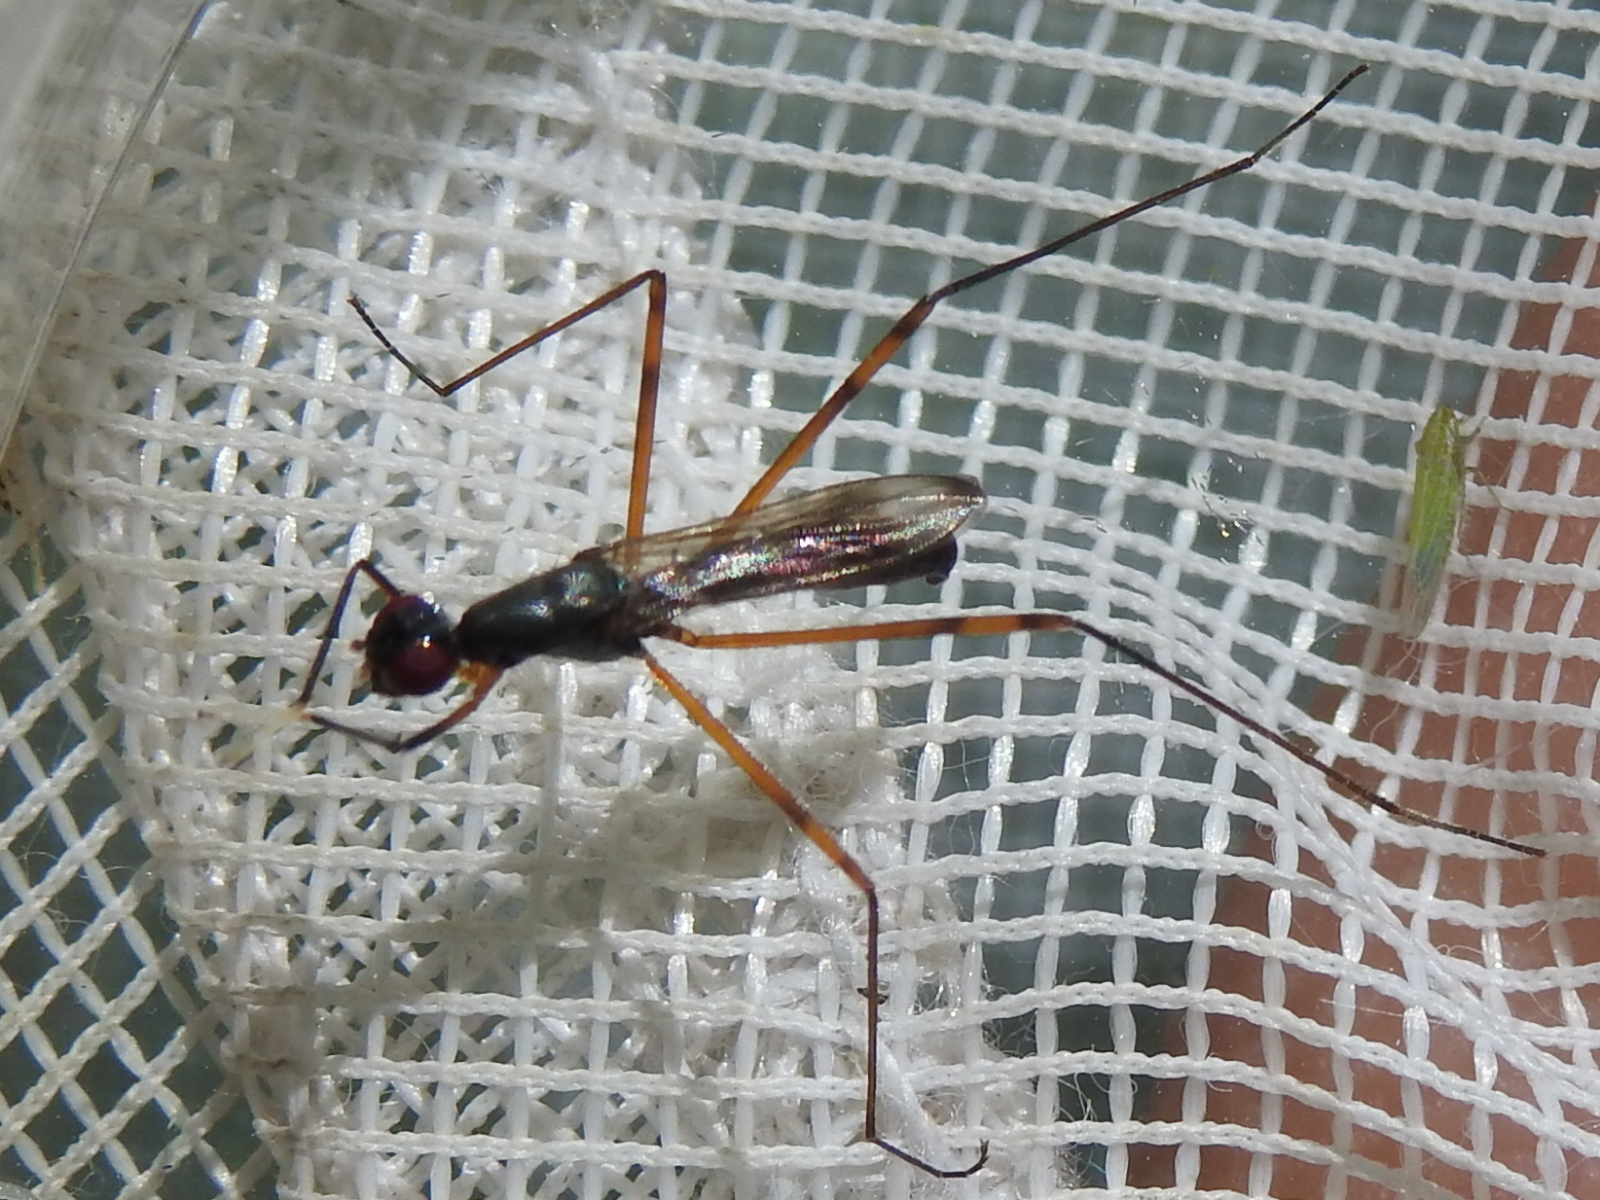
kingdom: Animalia
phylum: Arthropoda
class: Insecta
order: Diptera
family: Micropezidae
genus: Rainieria
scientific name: Rainieria antennaepes
